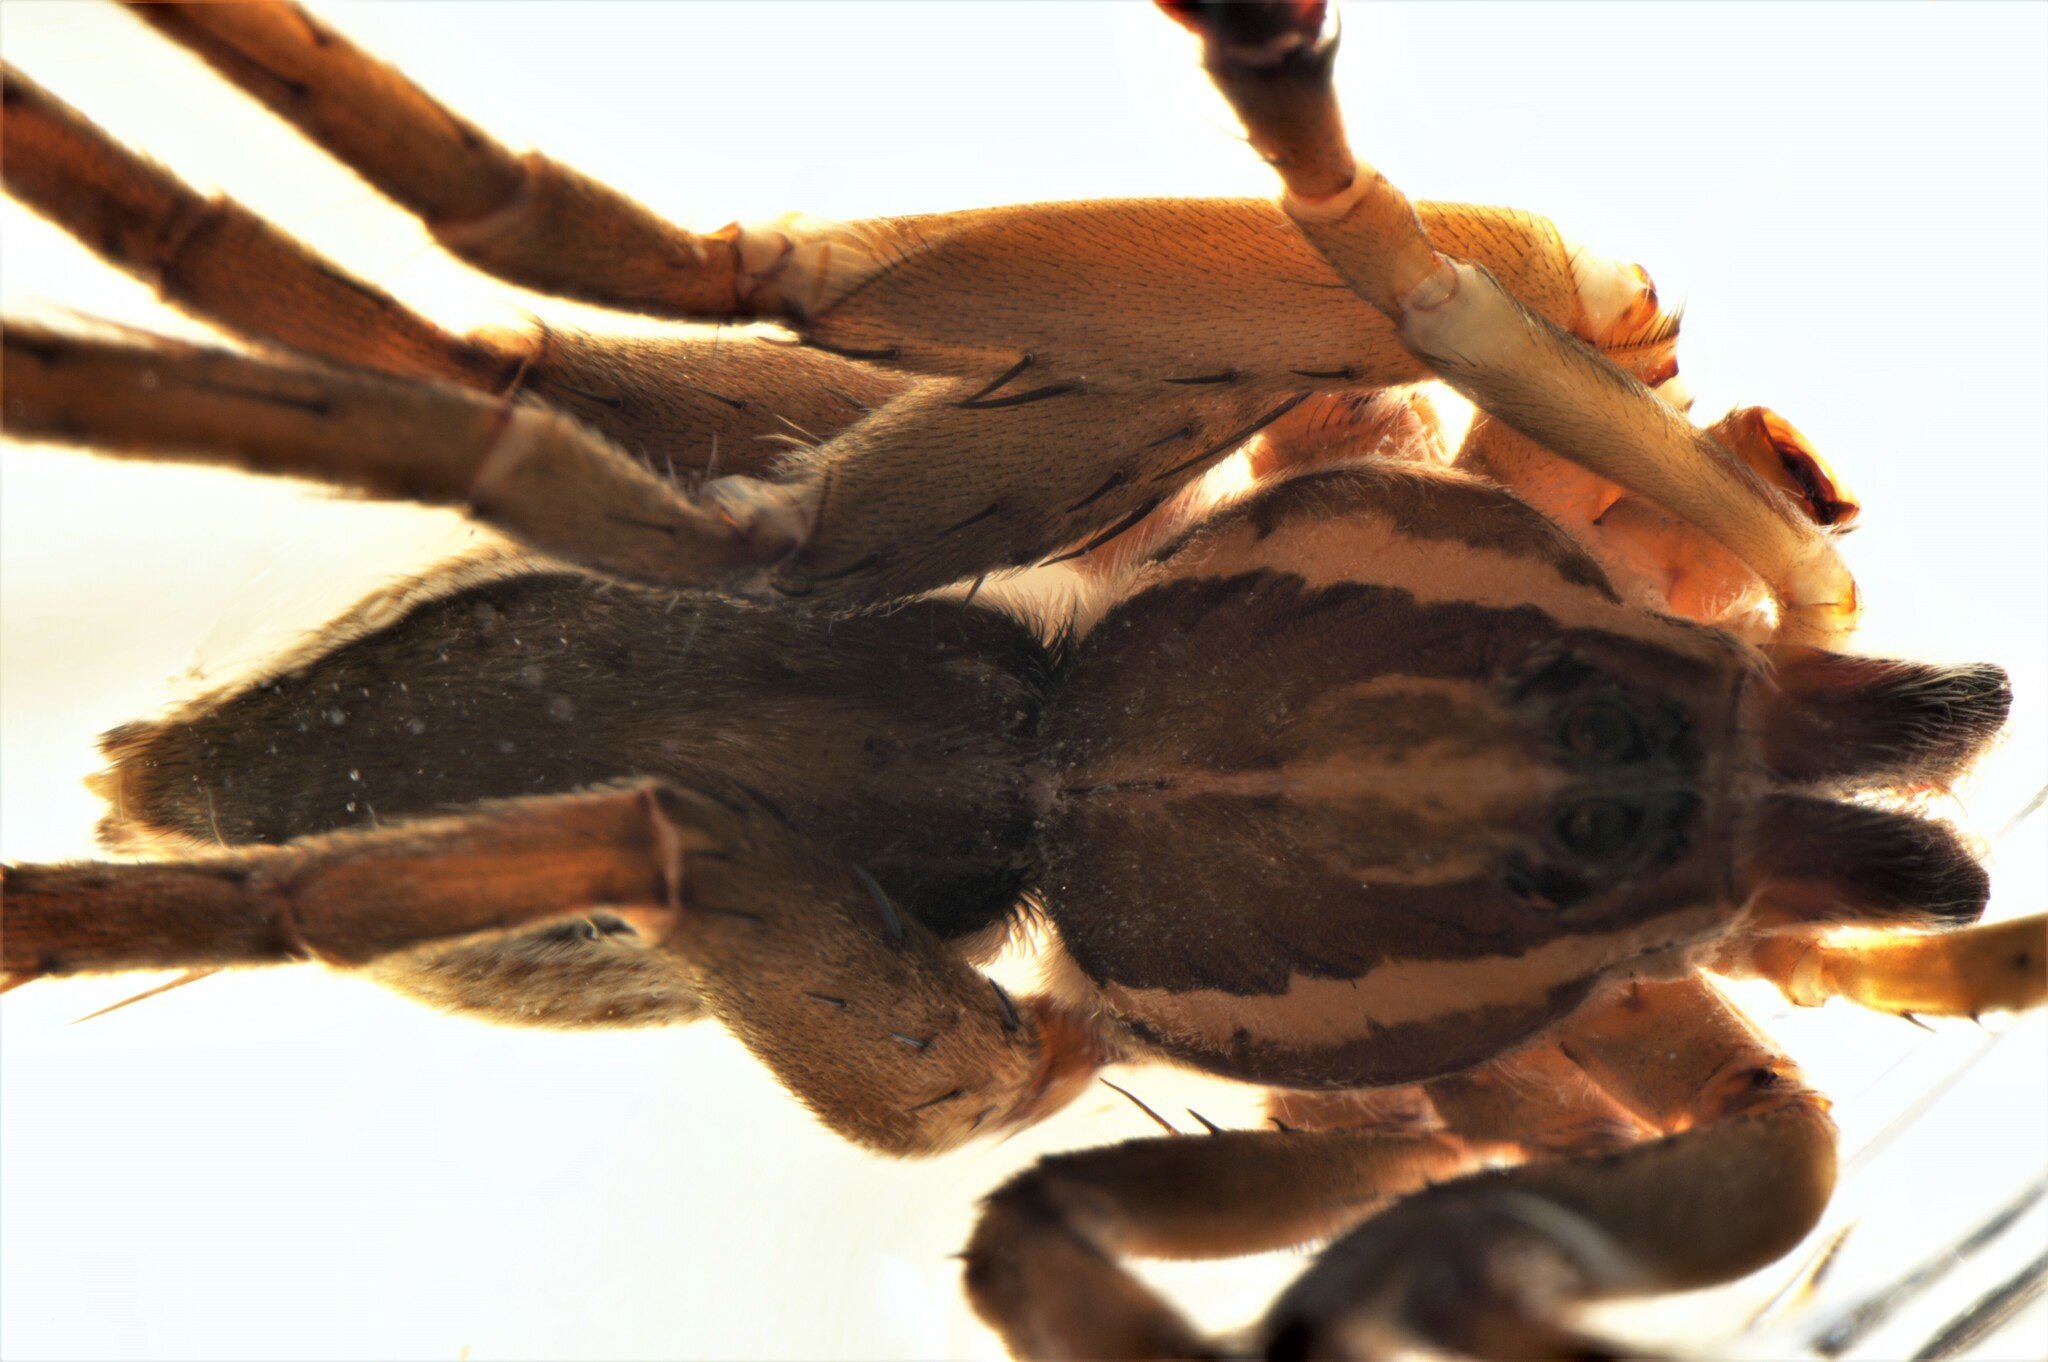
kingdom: Animalia
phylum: Arthropoda
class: Arachnida
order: Araneae
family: Pisauridae
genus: Dolomedes
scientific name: Dolomedes minor
